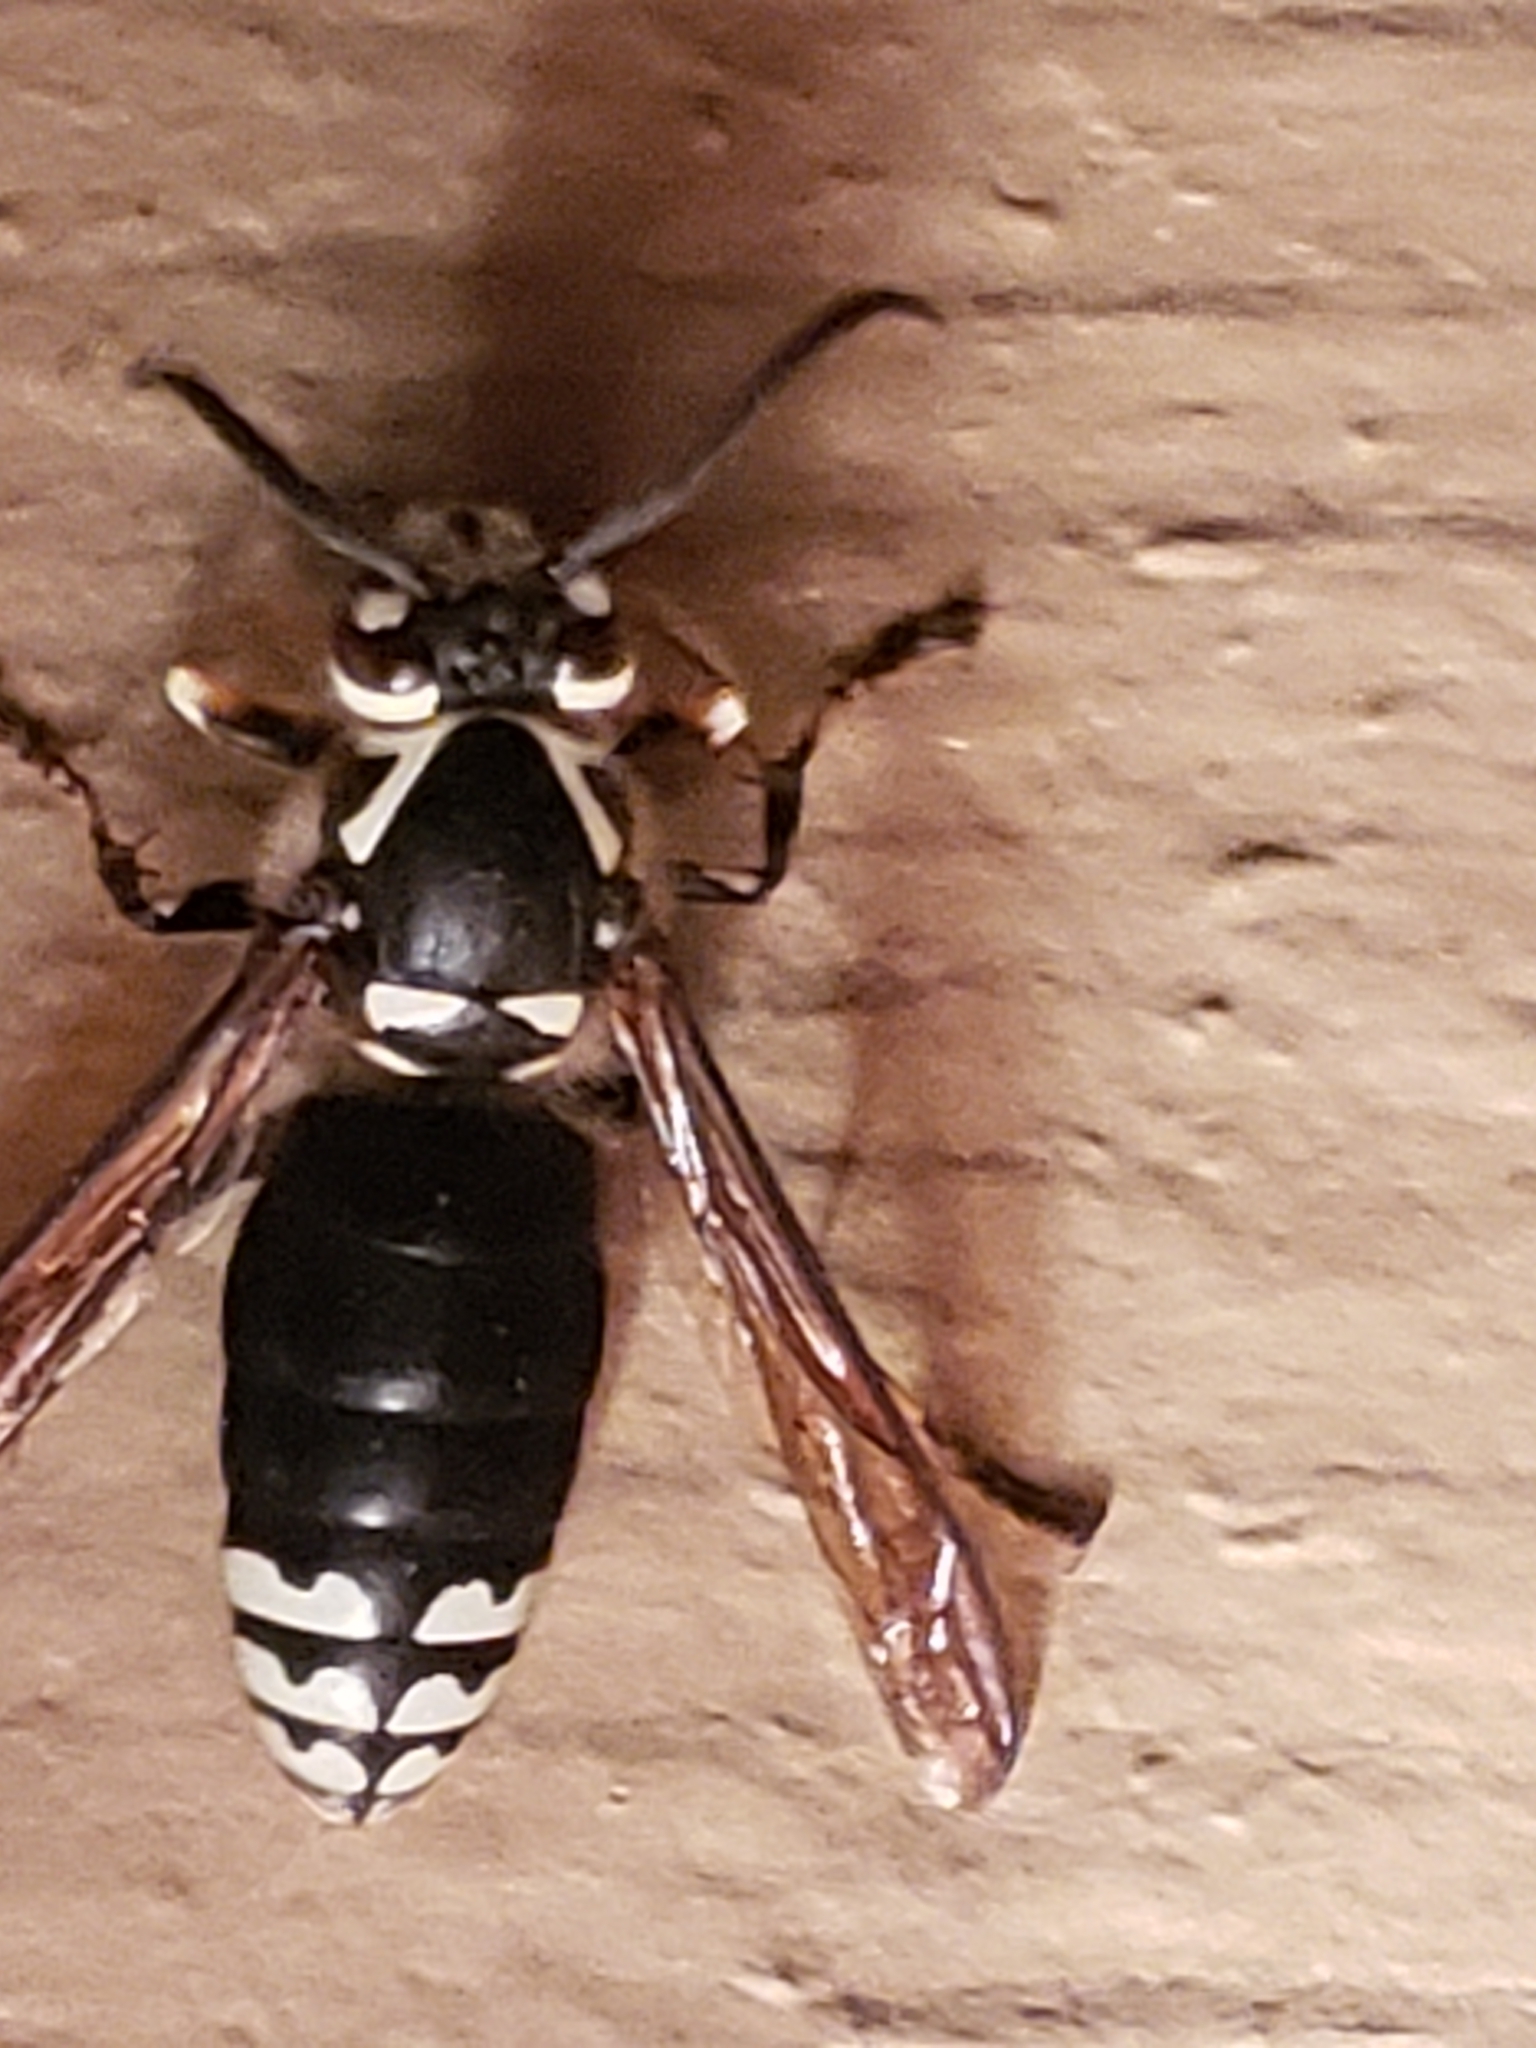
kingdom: Animalia
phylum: Arthropoda
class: Insecta
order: Hymenoptera
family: Vespidae
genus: Dolichovespula
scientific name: Dolichovespula maculata
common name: Bald-faced hornet
